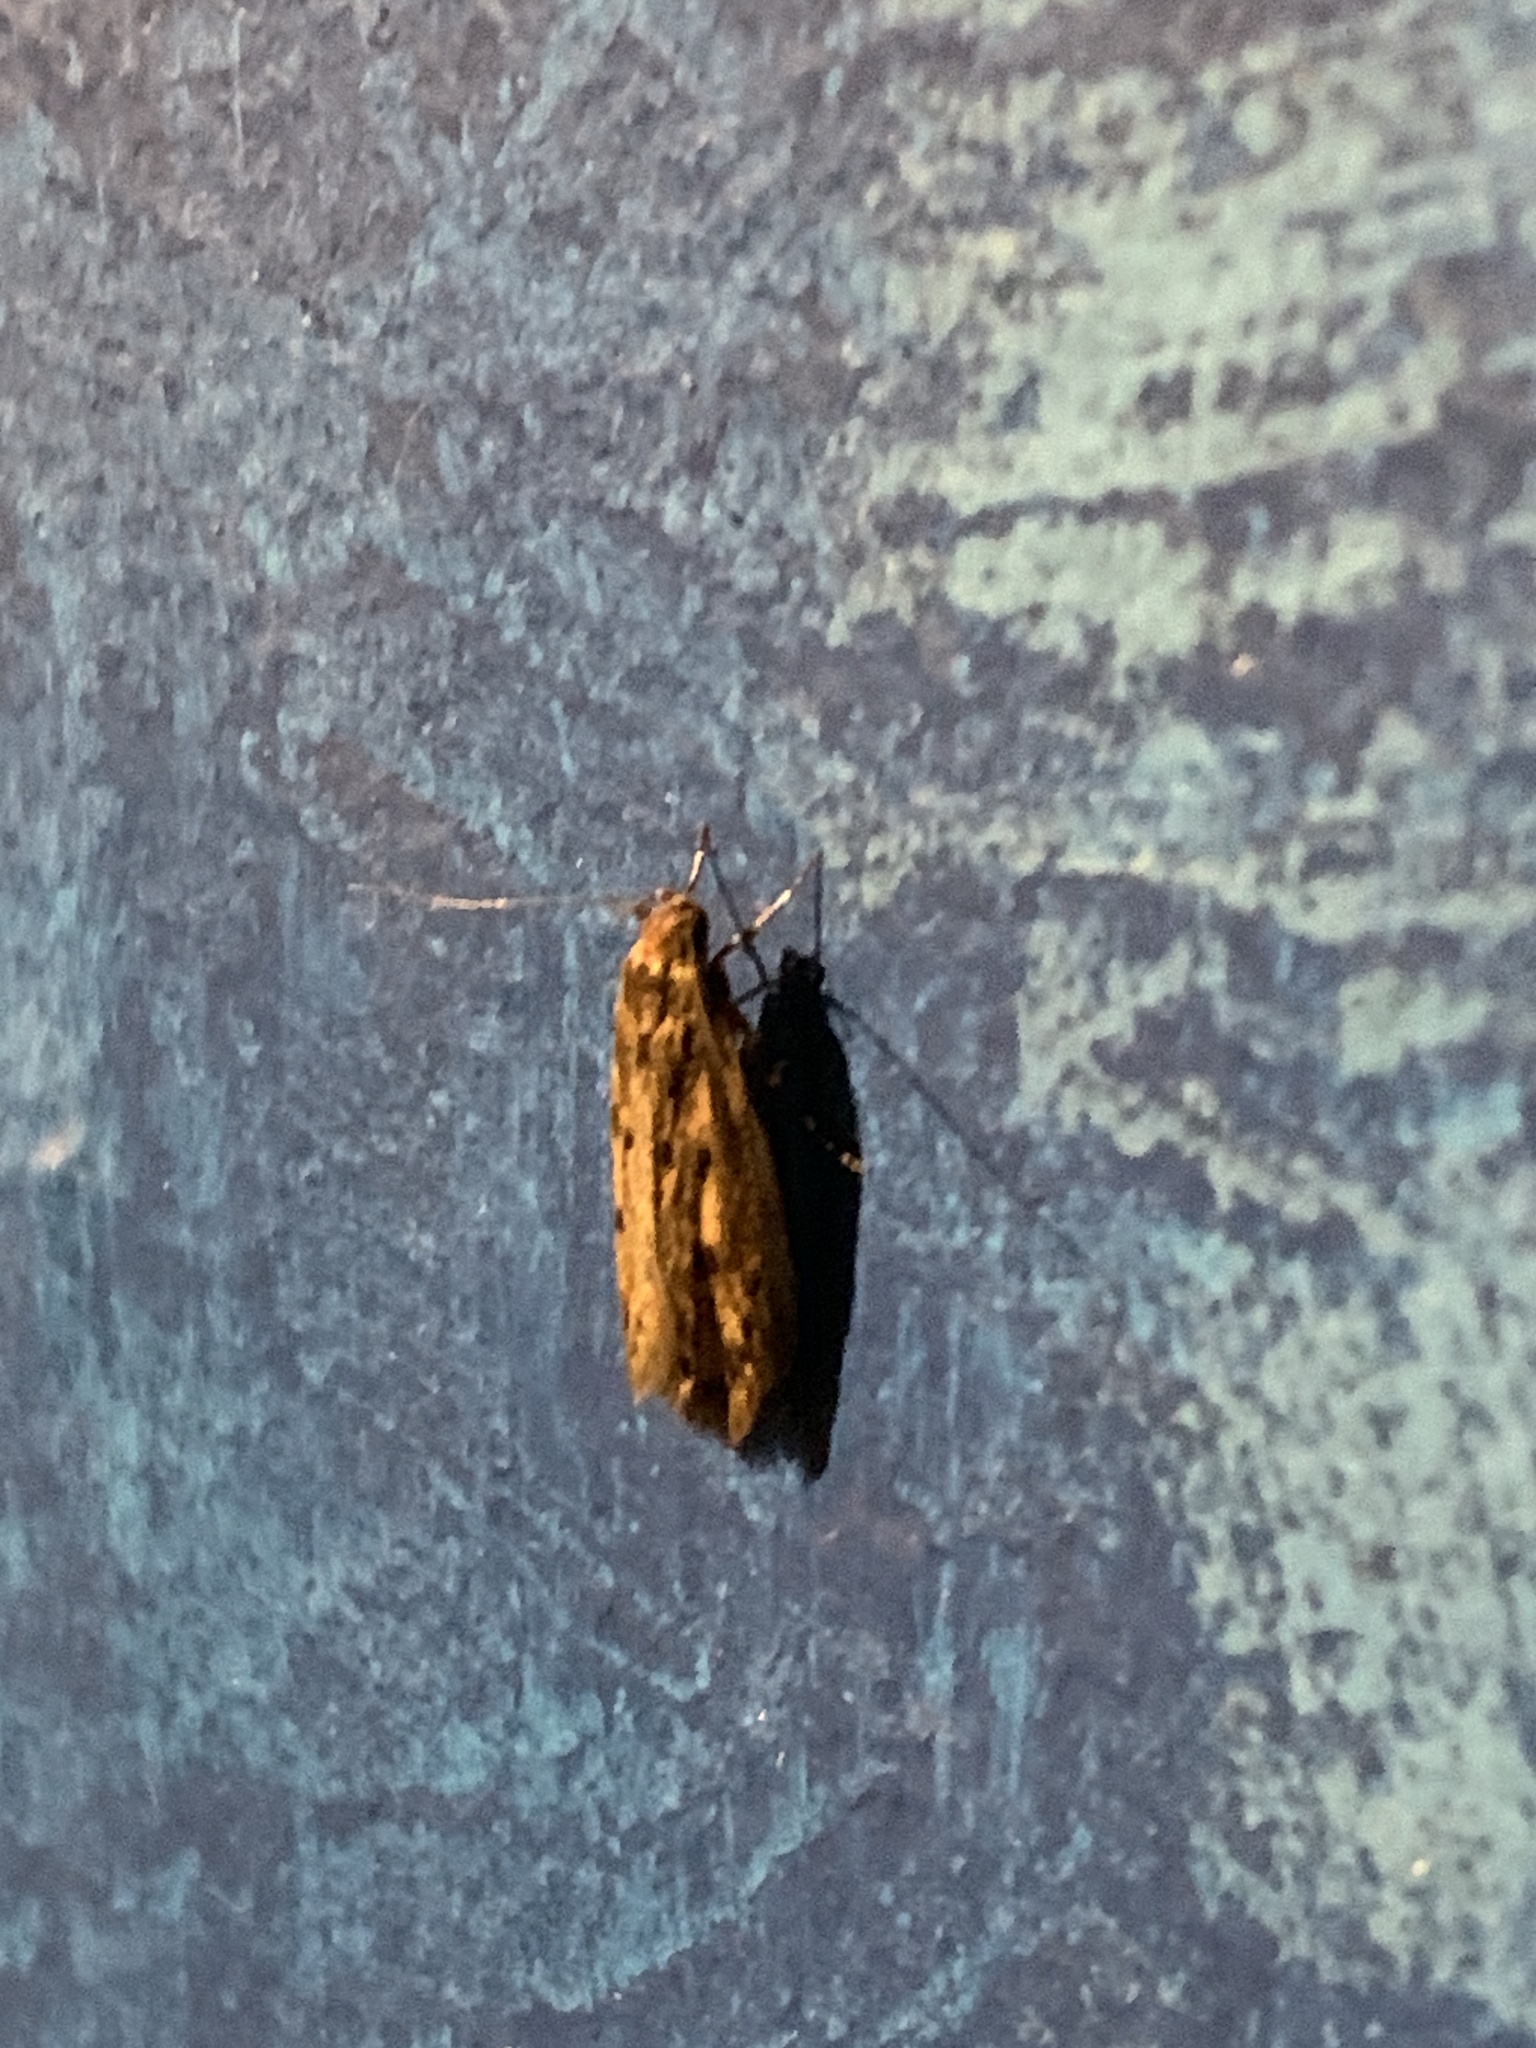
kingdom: Animalia
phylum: Arthropoda
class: Insecta
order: Lepidoptera
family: Oecophoridae
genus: Hofmannophila
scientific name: Hofmannophila pseudospretella
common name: Brown house moth
